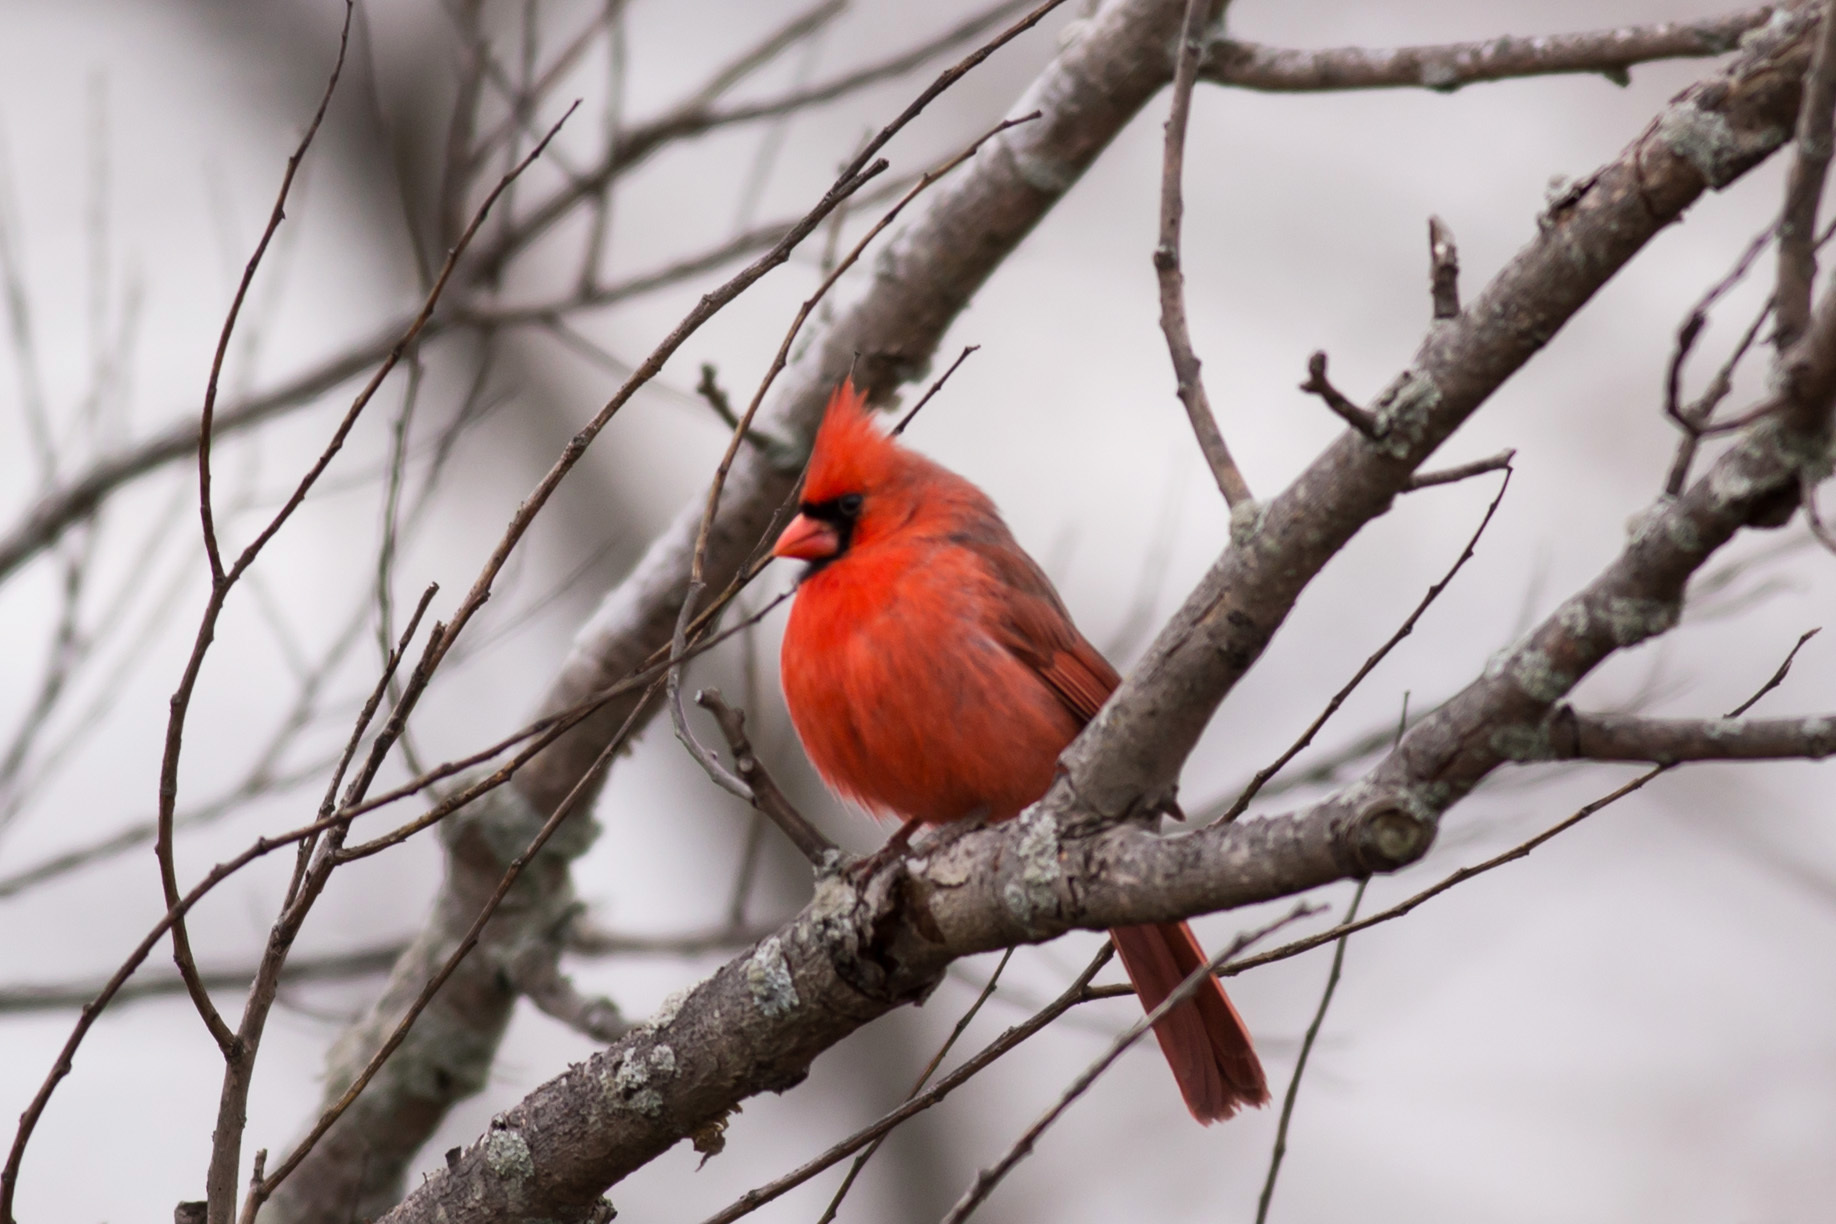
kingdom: Animalia
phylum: Chordata
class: Aves
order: Passeriformes
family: Cardinalidae
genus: Cardinalis
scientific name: Cardinalis cardinalis
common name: Northern cardinal
